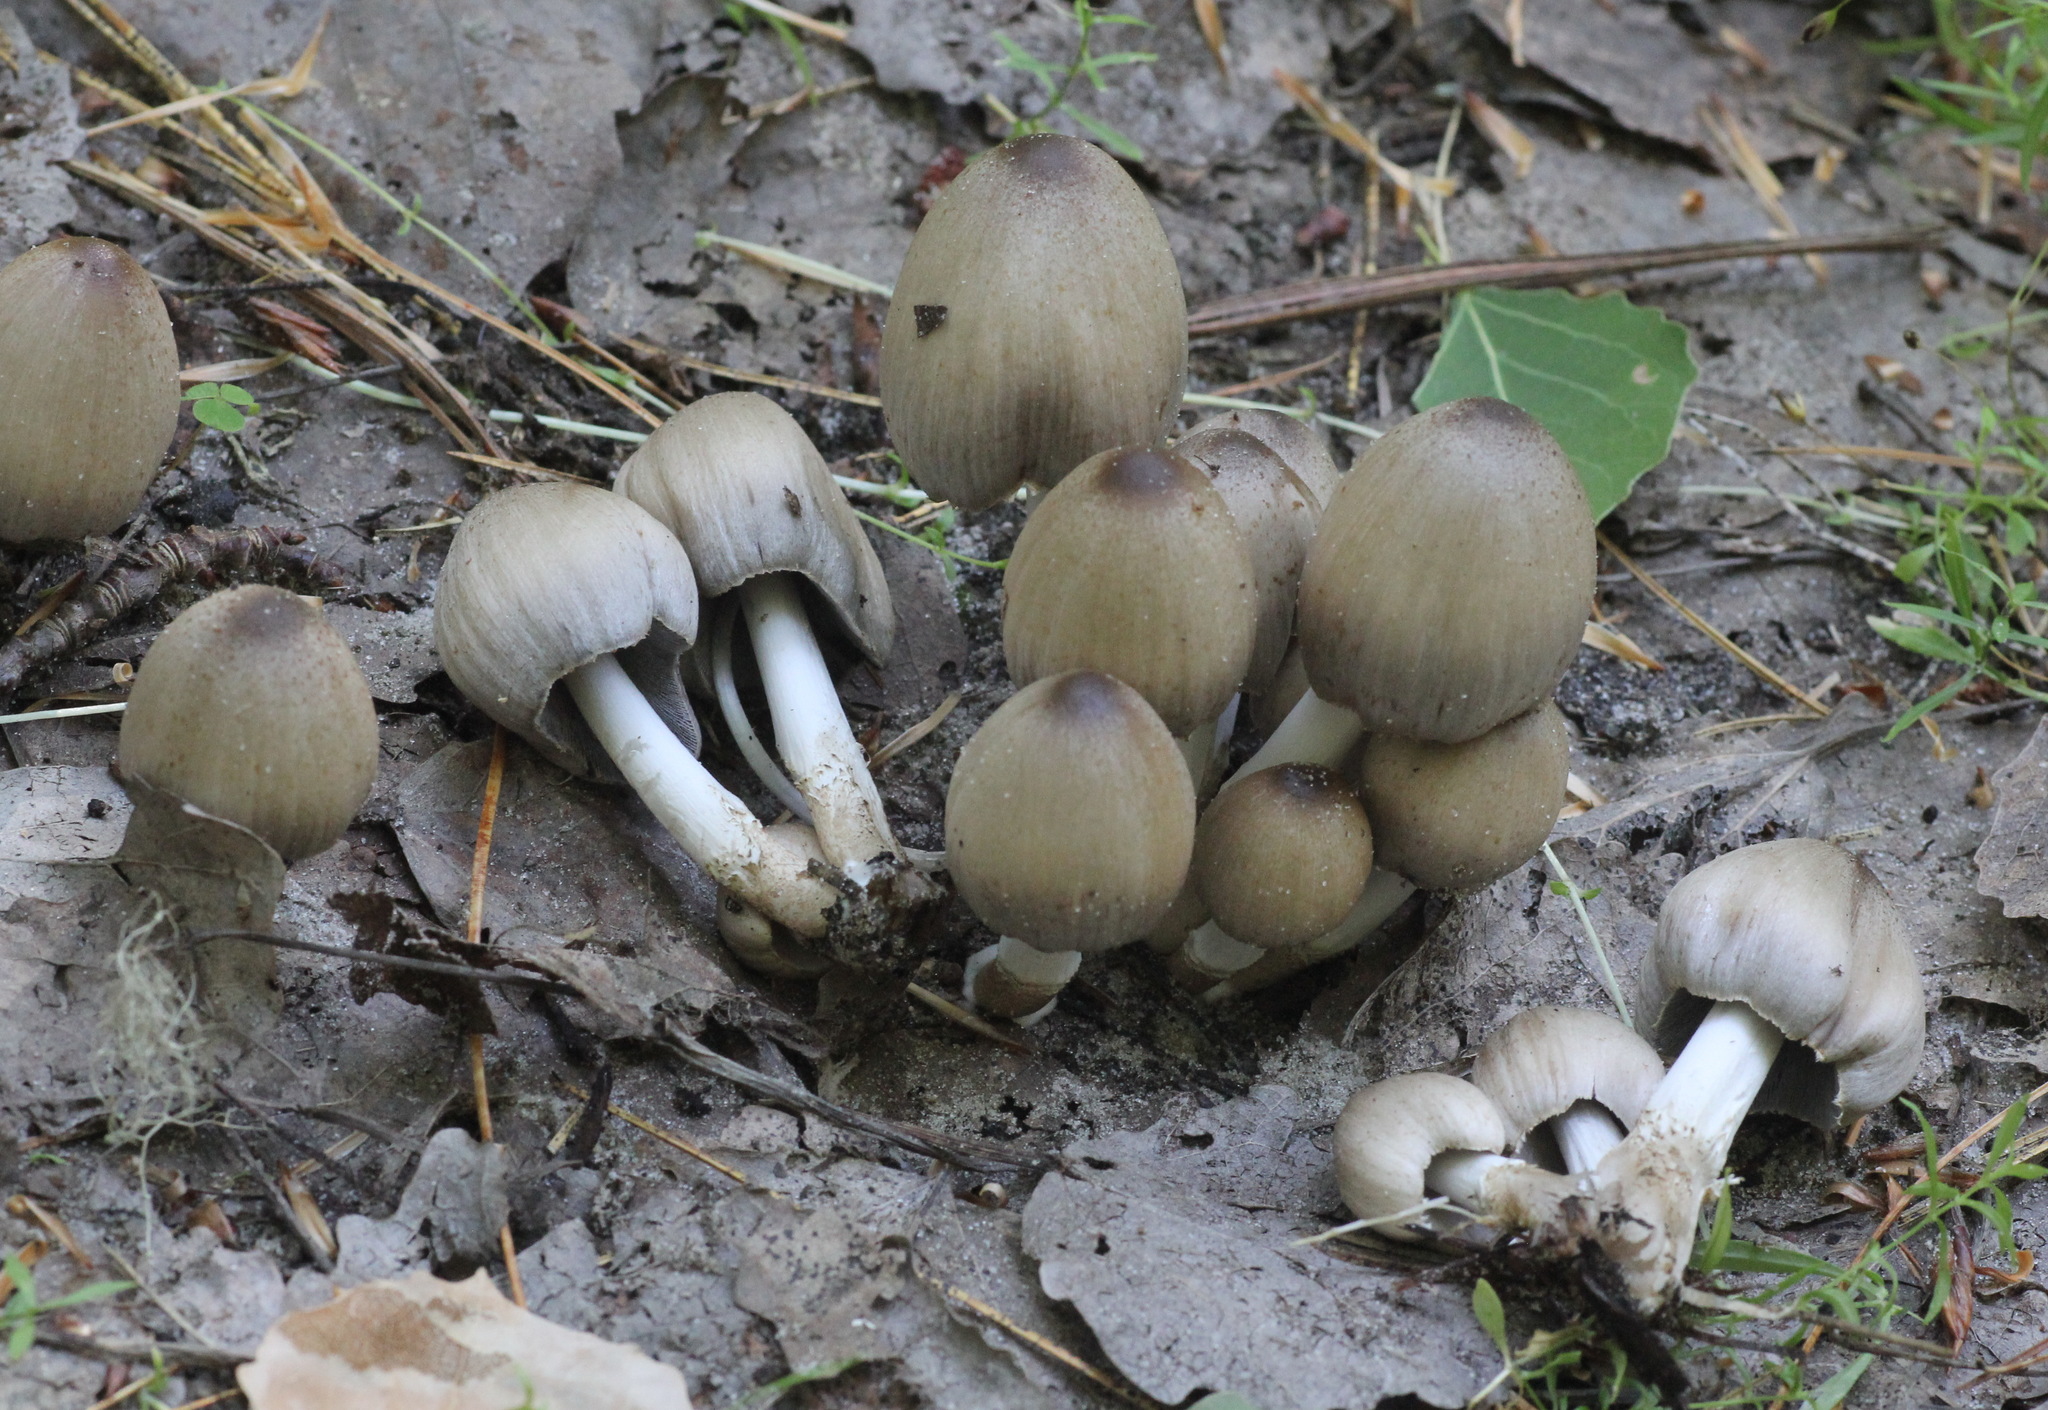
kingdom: Fungi
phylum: Basidiomycota
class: Agaricomycetes
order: Agaricales
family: Psathyrellaceae
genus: Coprinopsis
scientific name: Coprinopsis atramentaria
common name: Common ink-cap
